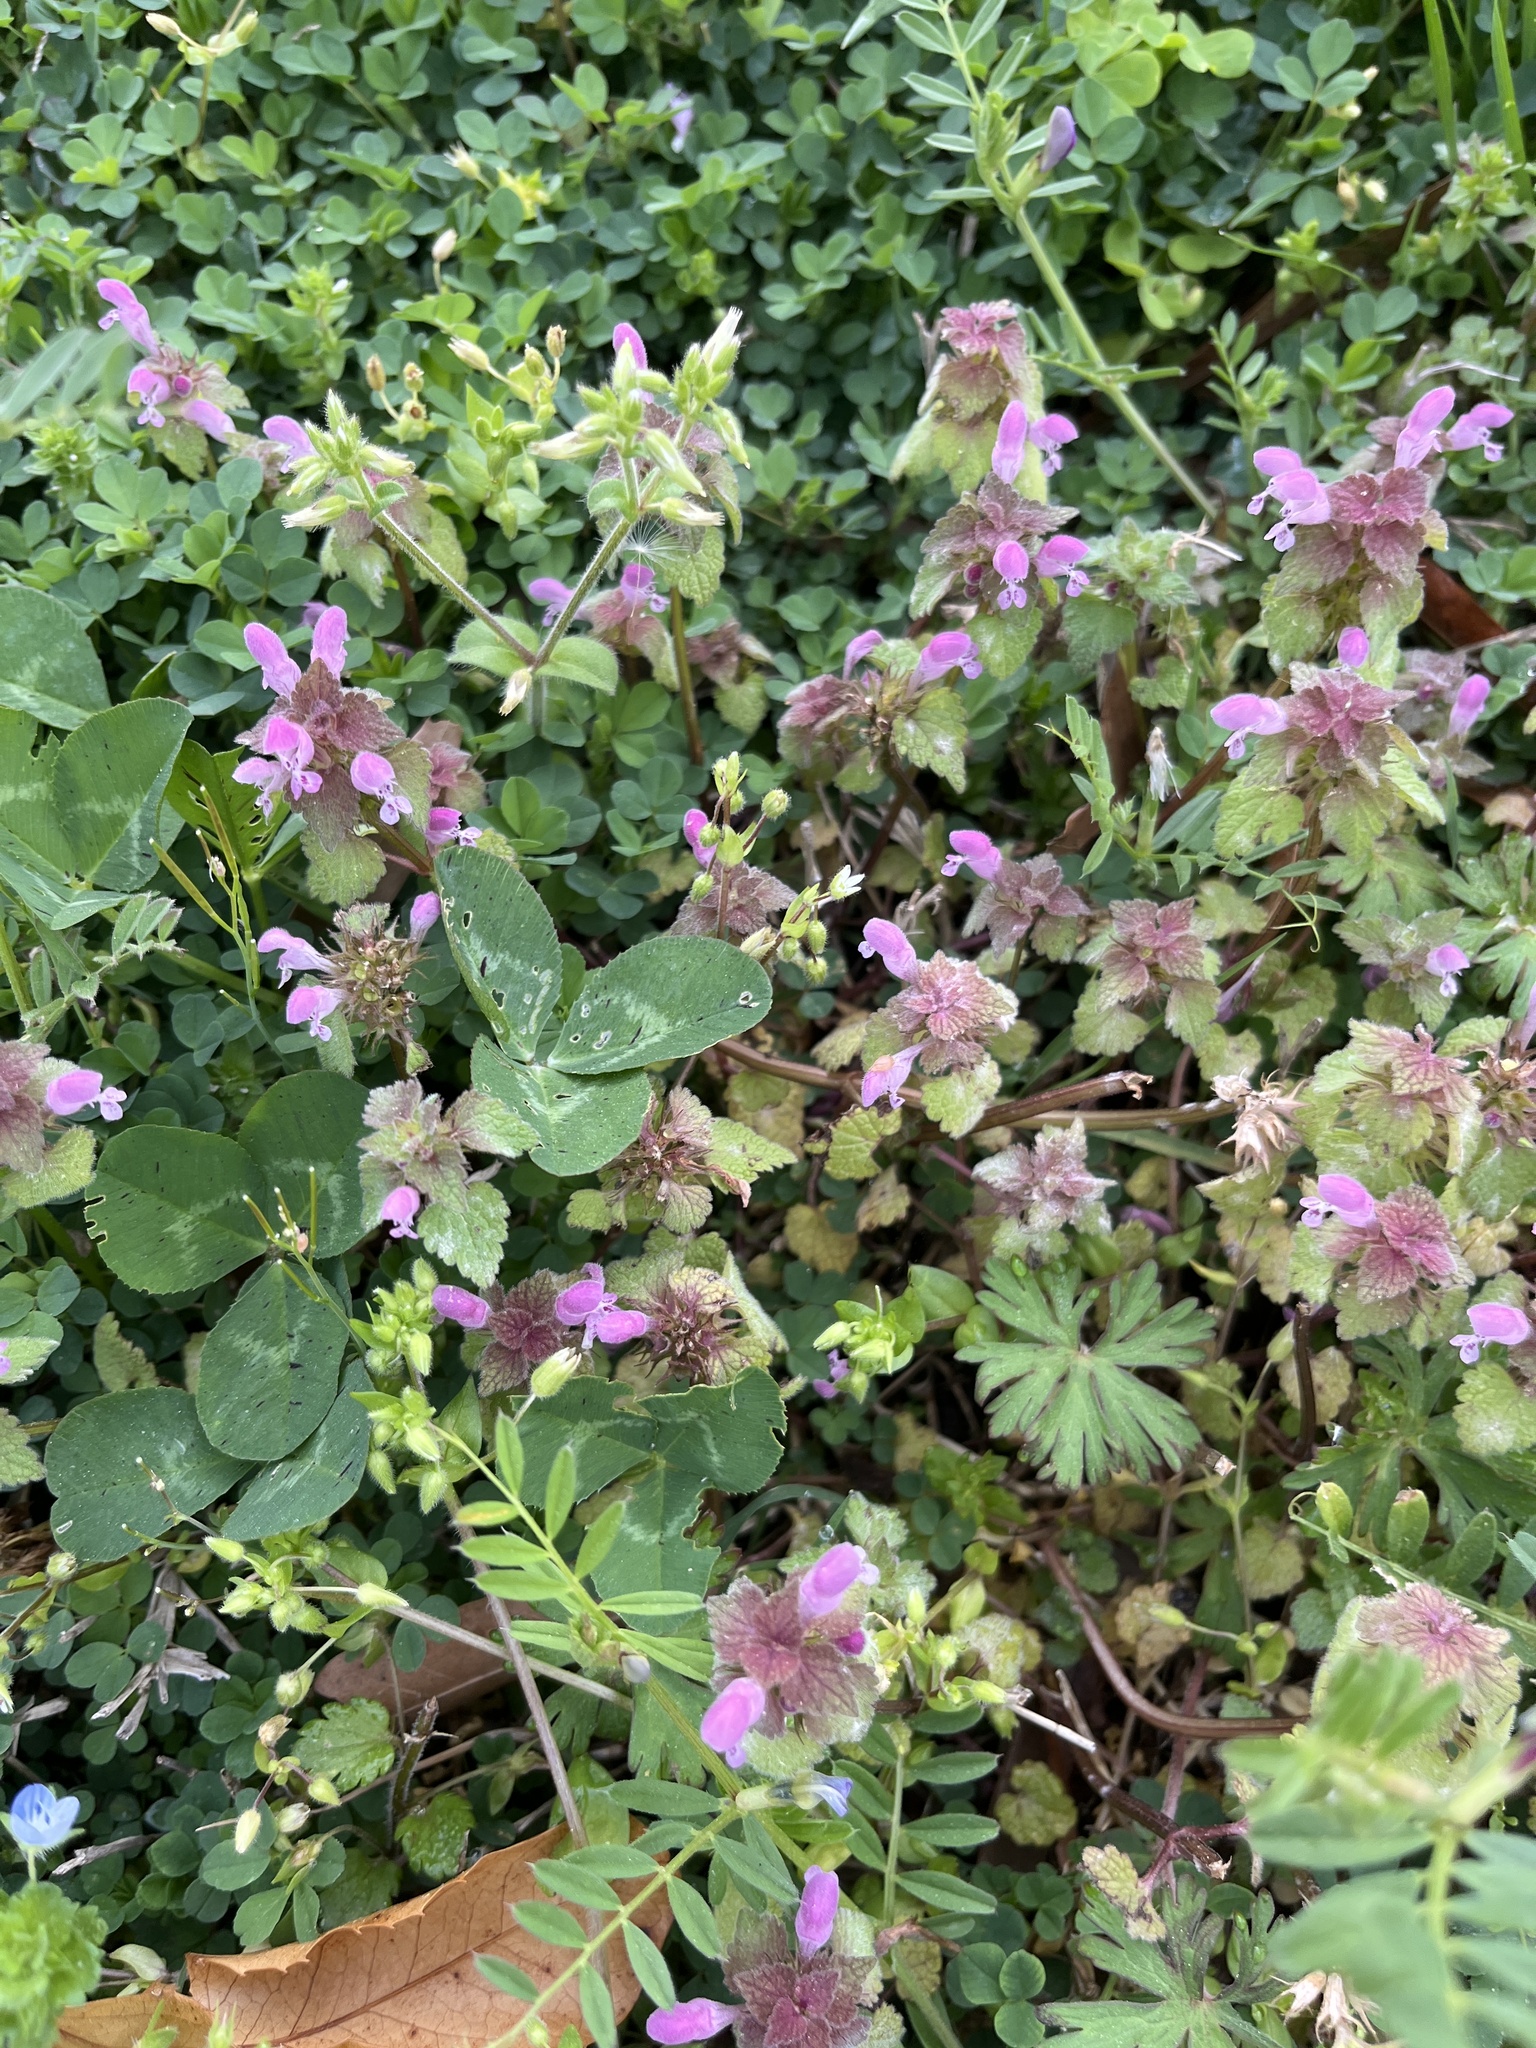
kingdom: Plantae
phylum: Tracheophyta
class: Magnoliopsida
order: Lamiales
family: Lamiaceae
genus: Lamium
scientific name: Lamium purpureum
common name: Red dead-nettle
